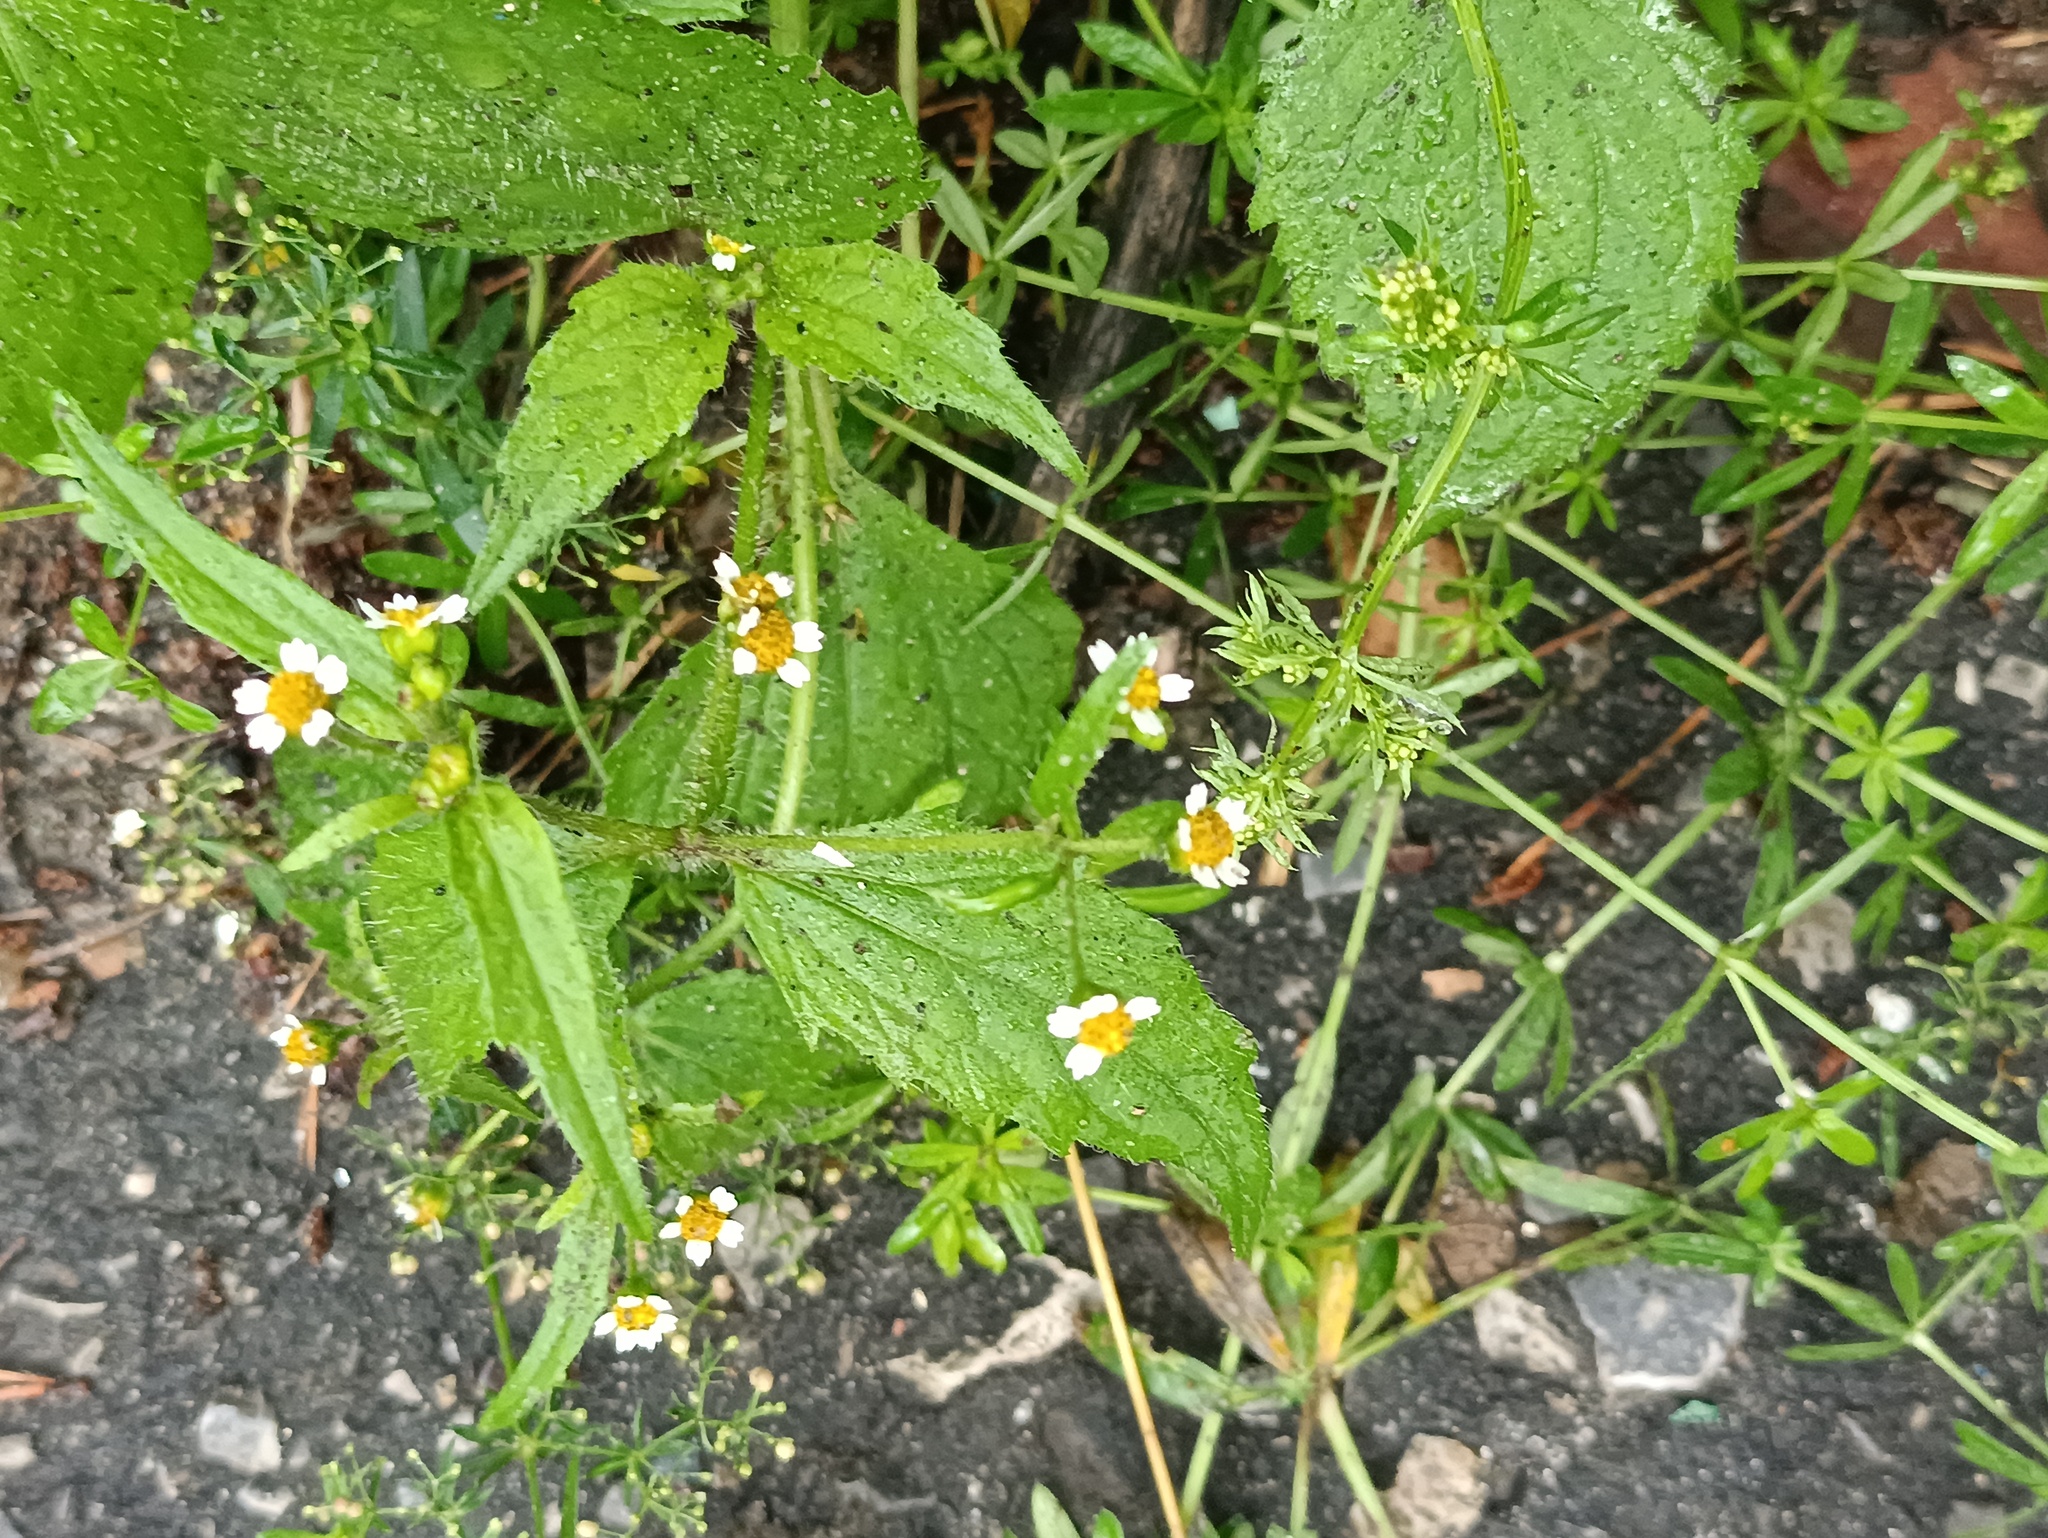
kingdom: Plantae
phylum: Tracheophyta
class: Magnoliopsida
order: Asterales
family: Asteraceae
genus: Galinsoga
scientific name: Galinsoga quadriradiata
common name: Shaggy soldier
